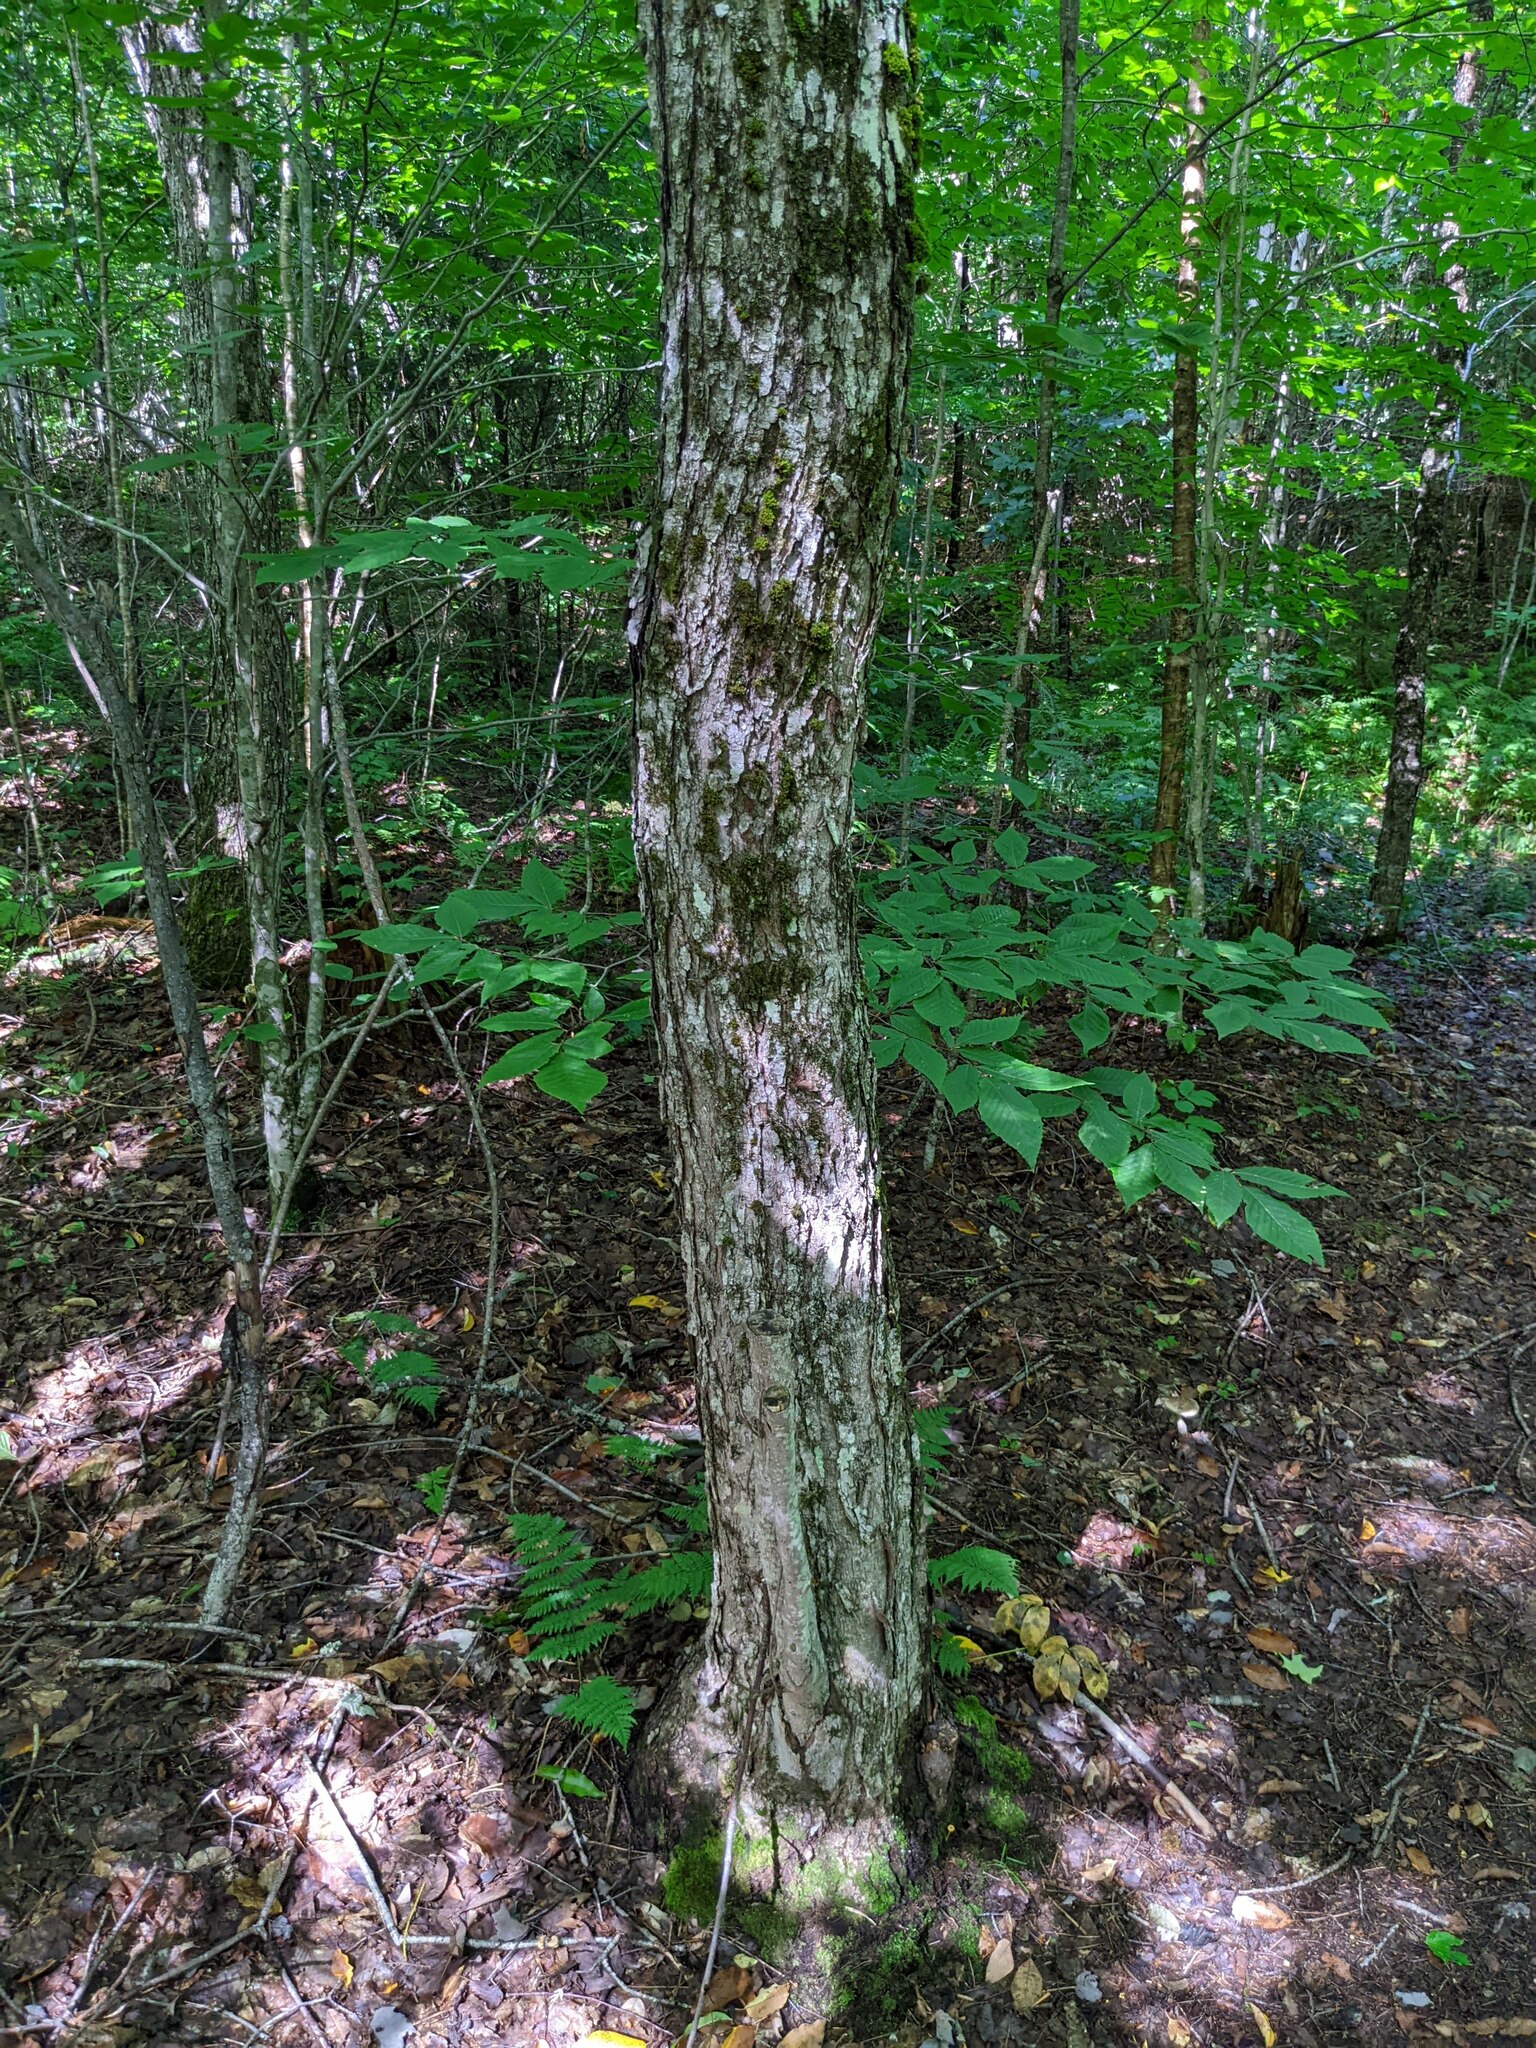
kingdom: Plantae
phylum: Tracheophyta
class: Magnoliopsida
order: Sapindales
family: Sapindaceae
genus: Acer
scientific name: Acer rubrum
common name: Red maple
